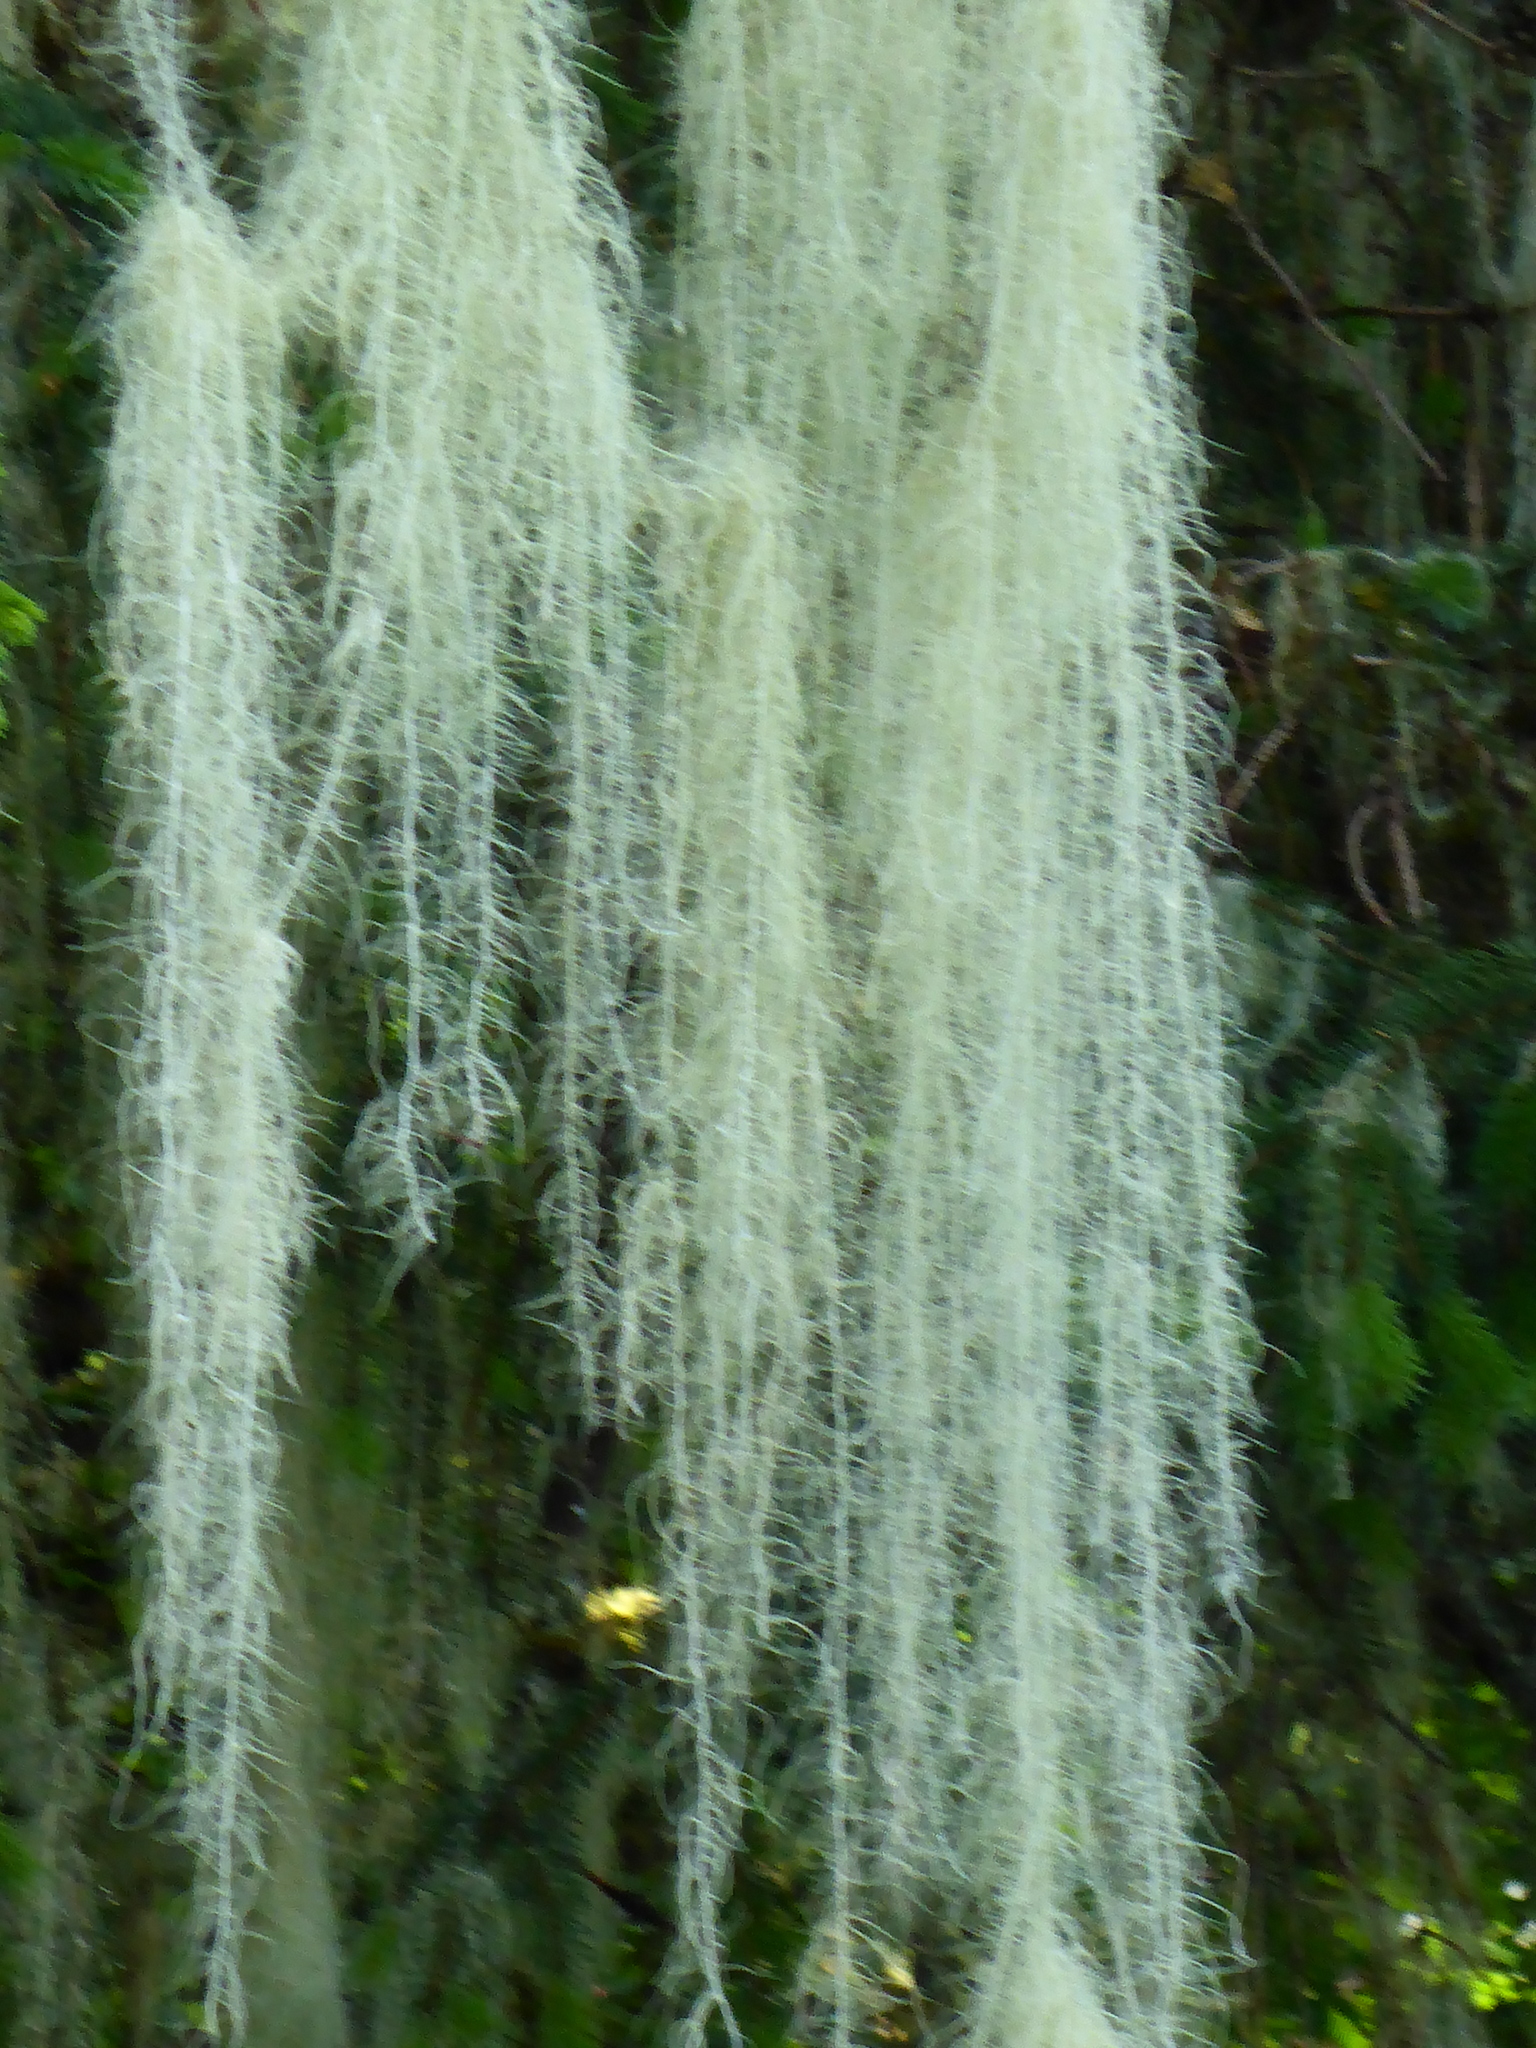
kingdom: Fungi
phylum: Ascomycota
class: Lecanoromycetes
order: Lecanorales
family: Parmeliaceae
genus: Dolichousnea
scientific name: Dolichousnea longissima
